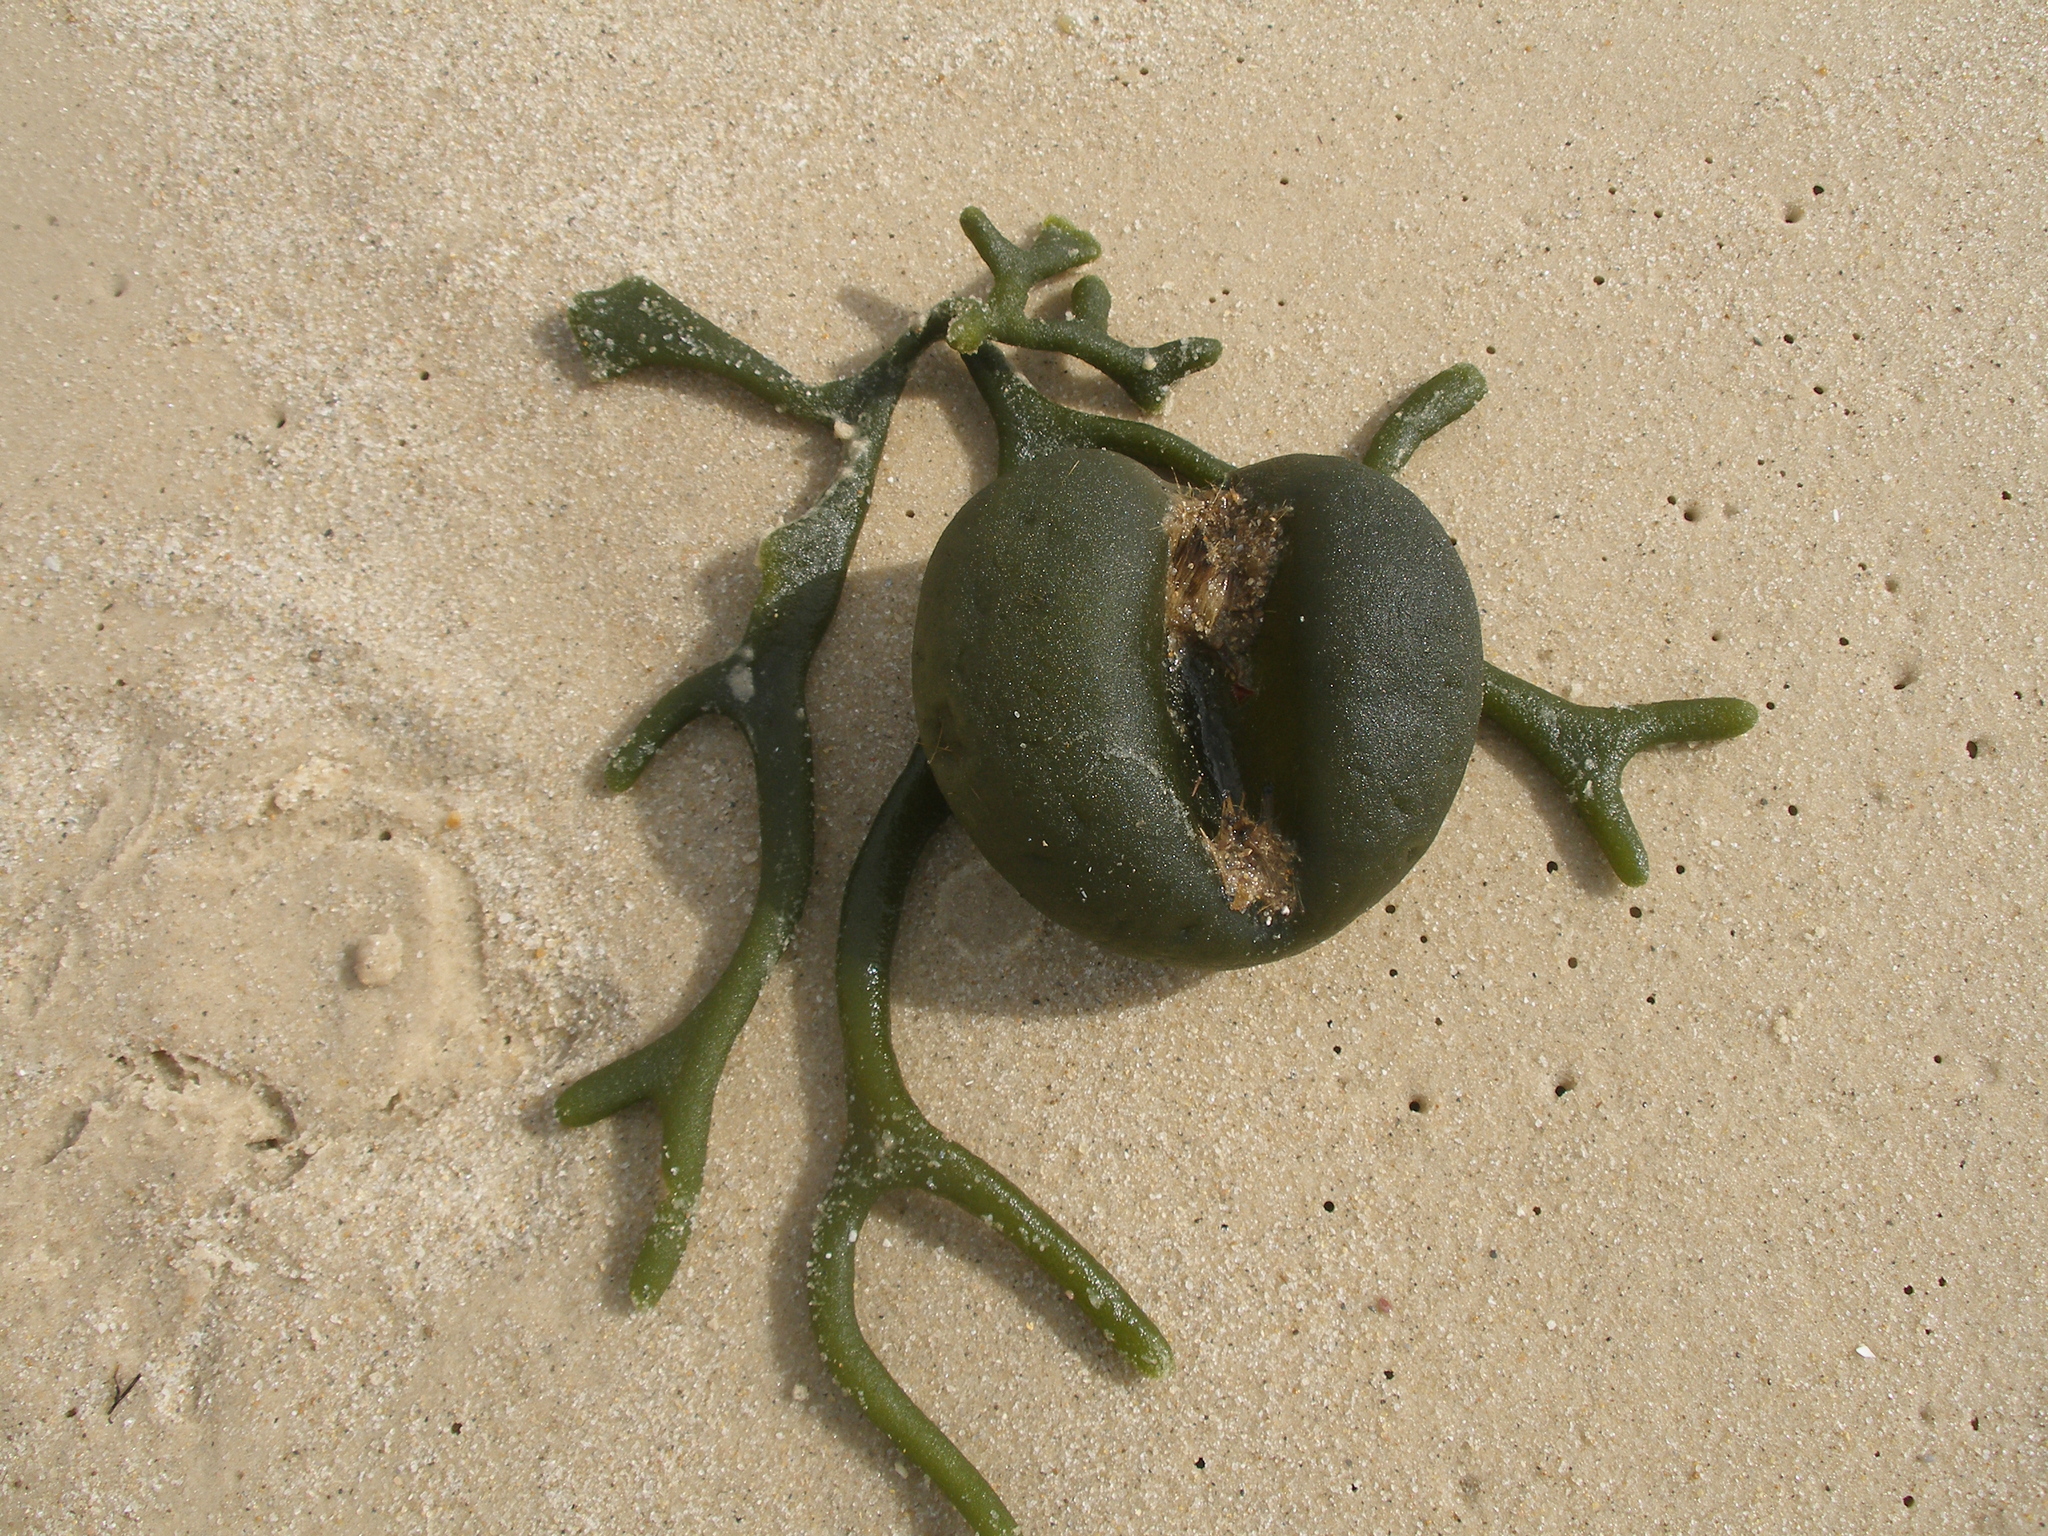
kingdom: Plantae
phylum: Chlorophyta
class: Ulvophyceae
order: Bryopsidales
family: Codiaceae
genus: Codium
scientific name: Codium bursa
